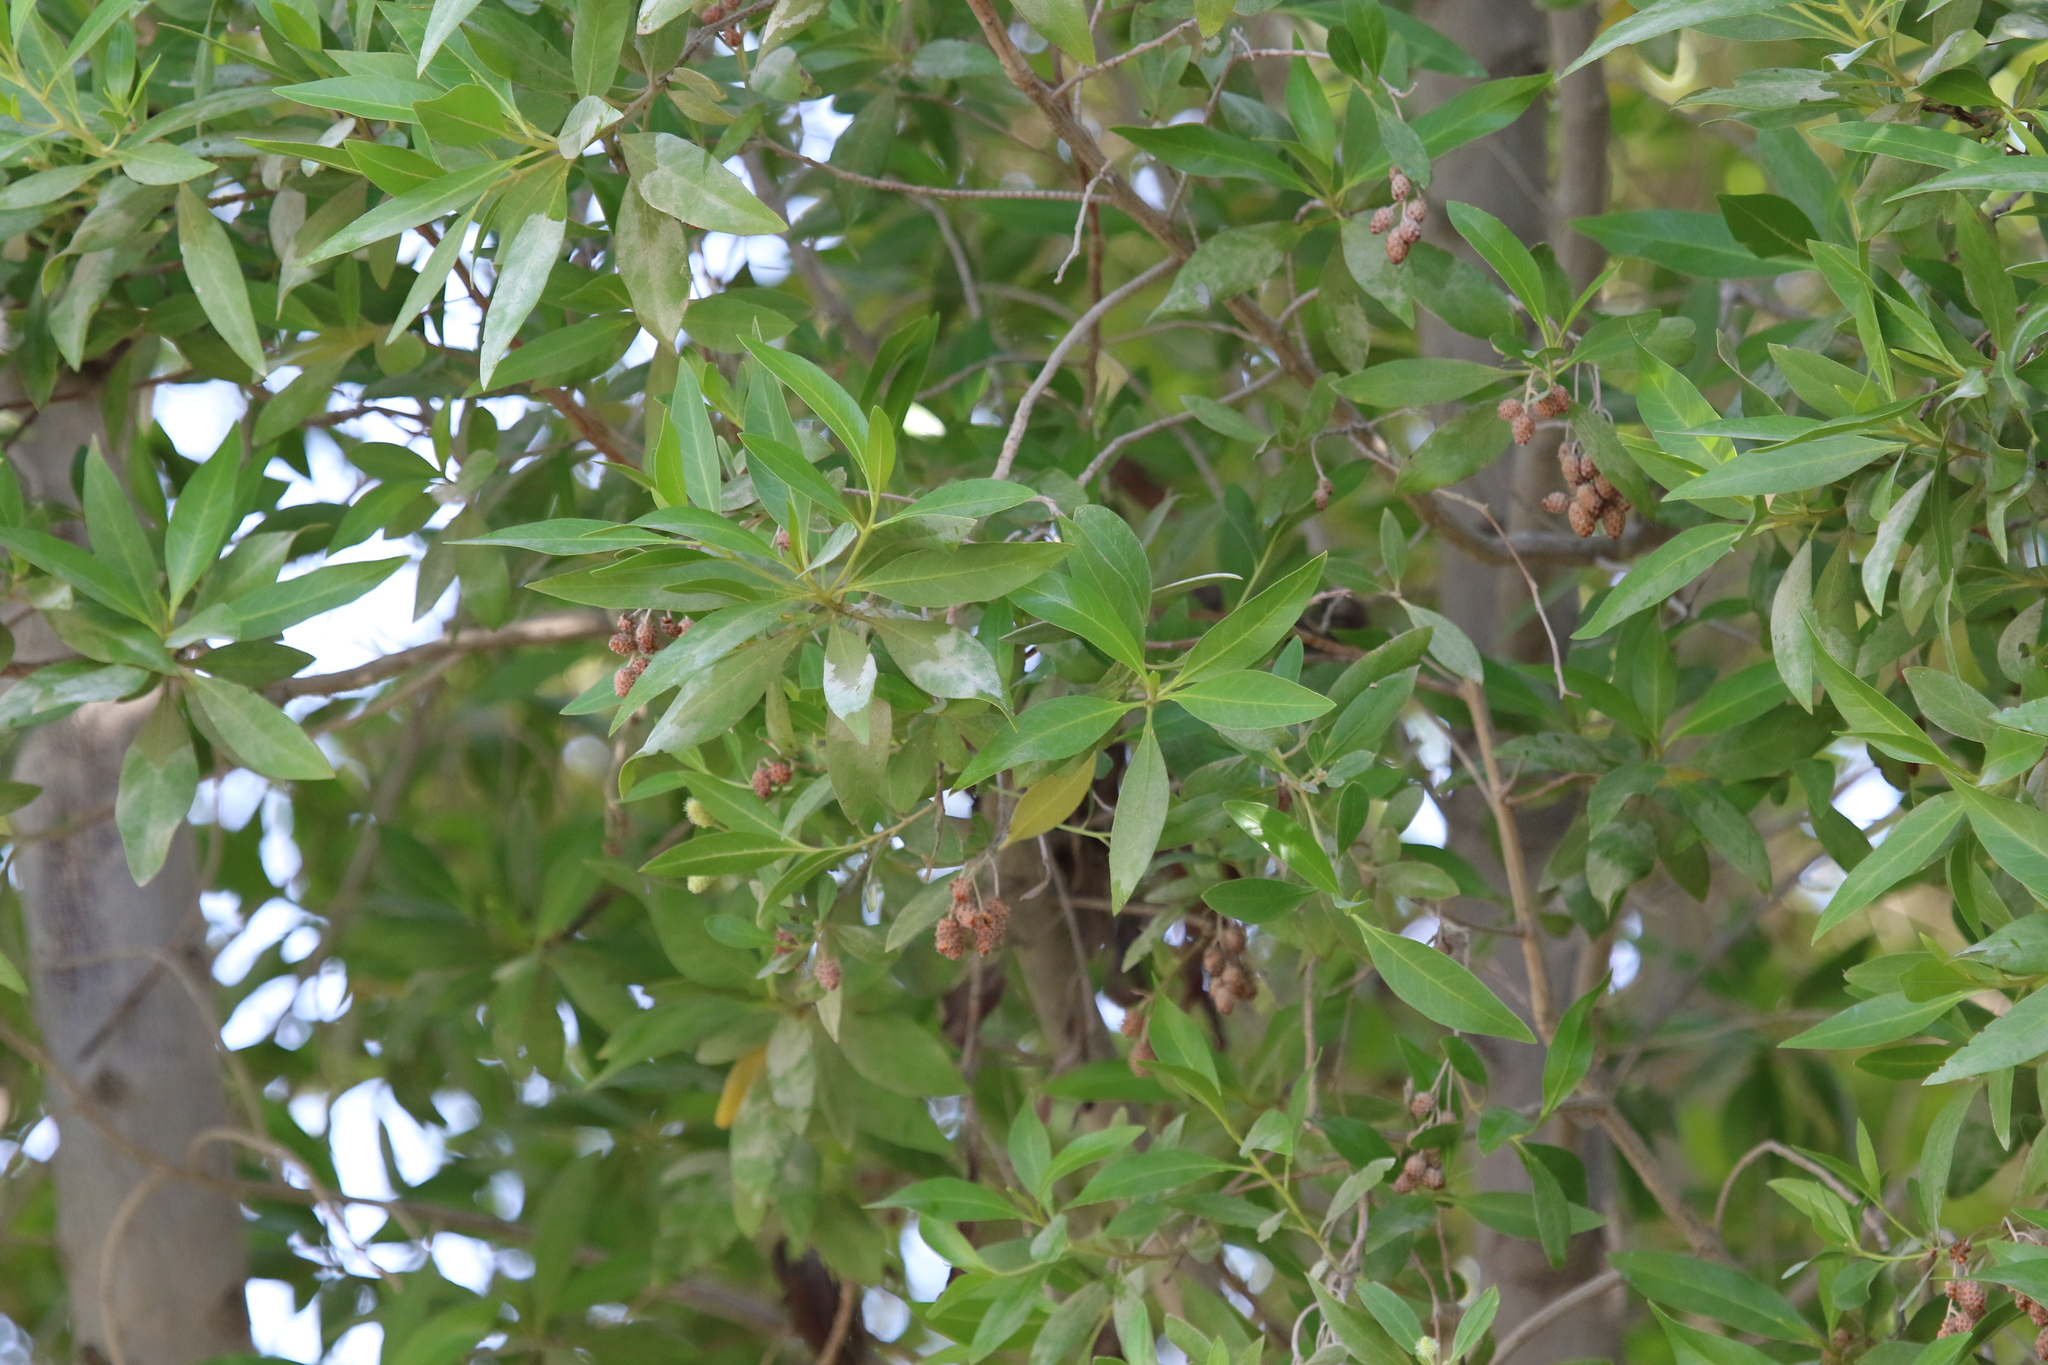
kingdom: Plantae
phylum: Tracheophyta
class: Magnoliopsida
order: Myrtales
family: Combretaceae
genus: Conocarpus
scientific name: Conocarpus erectus
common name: Button mangrove
